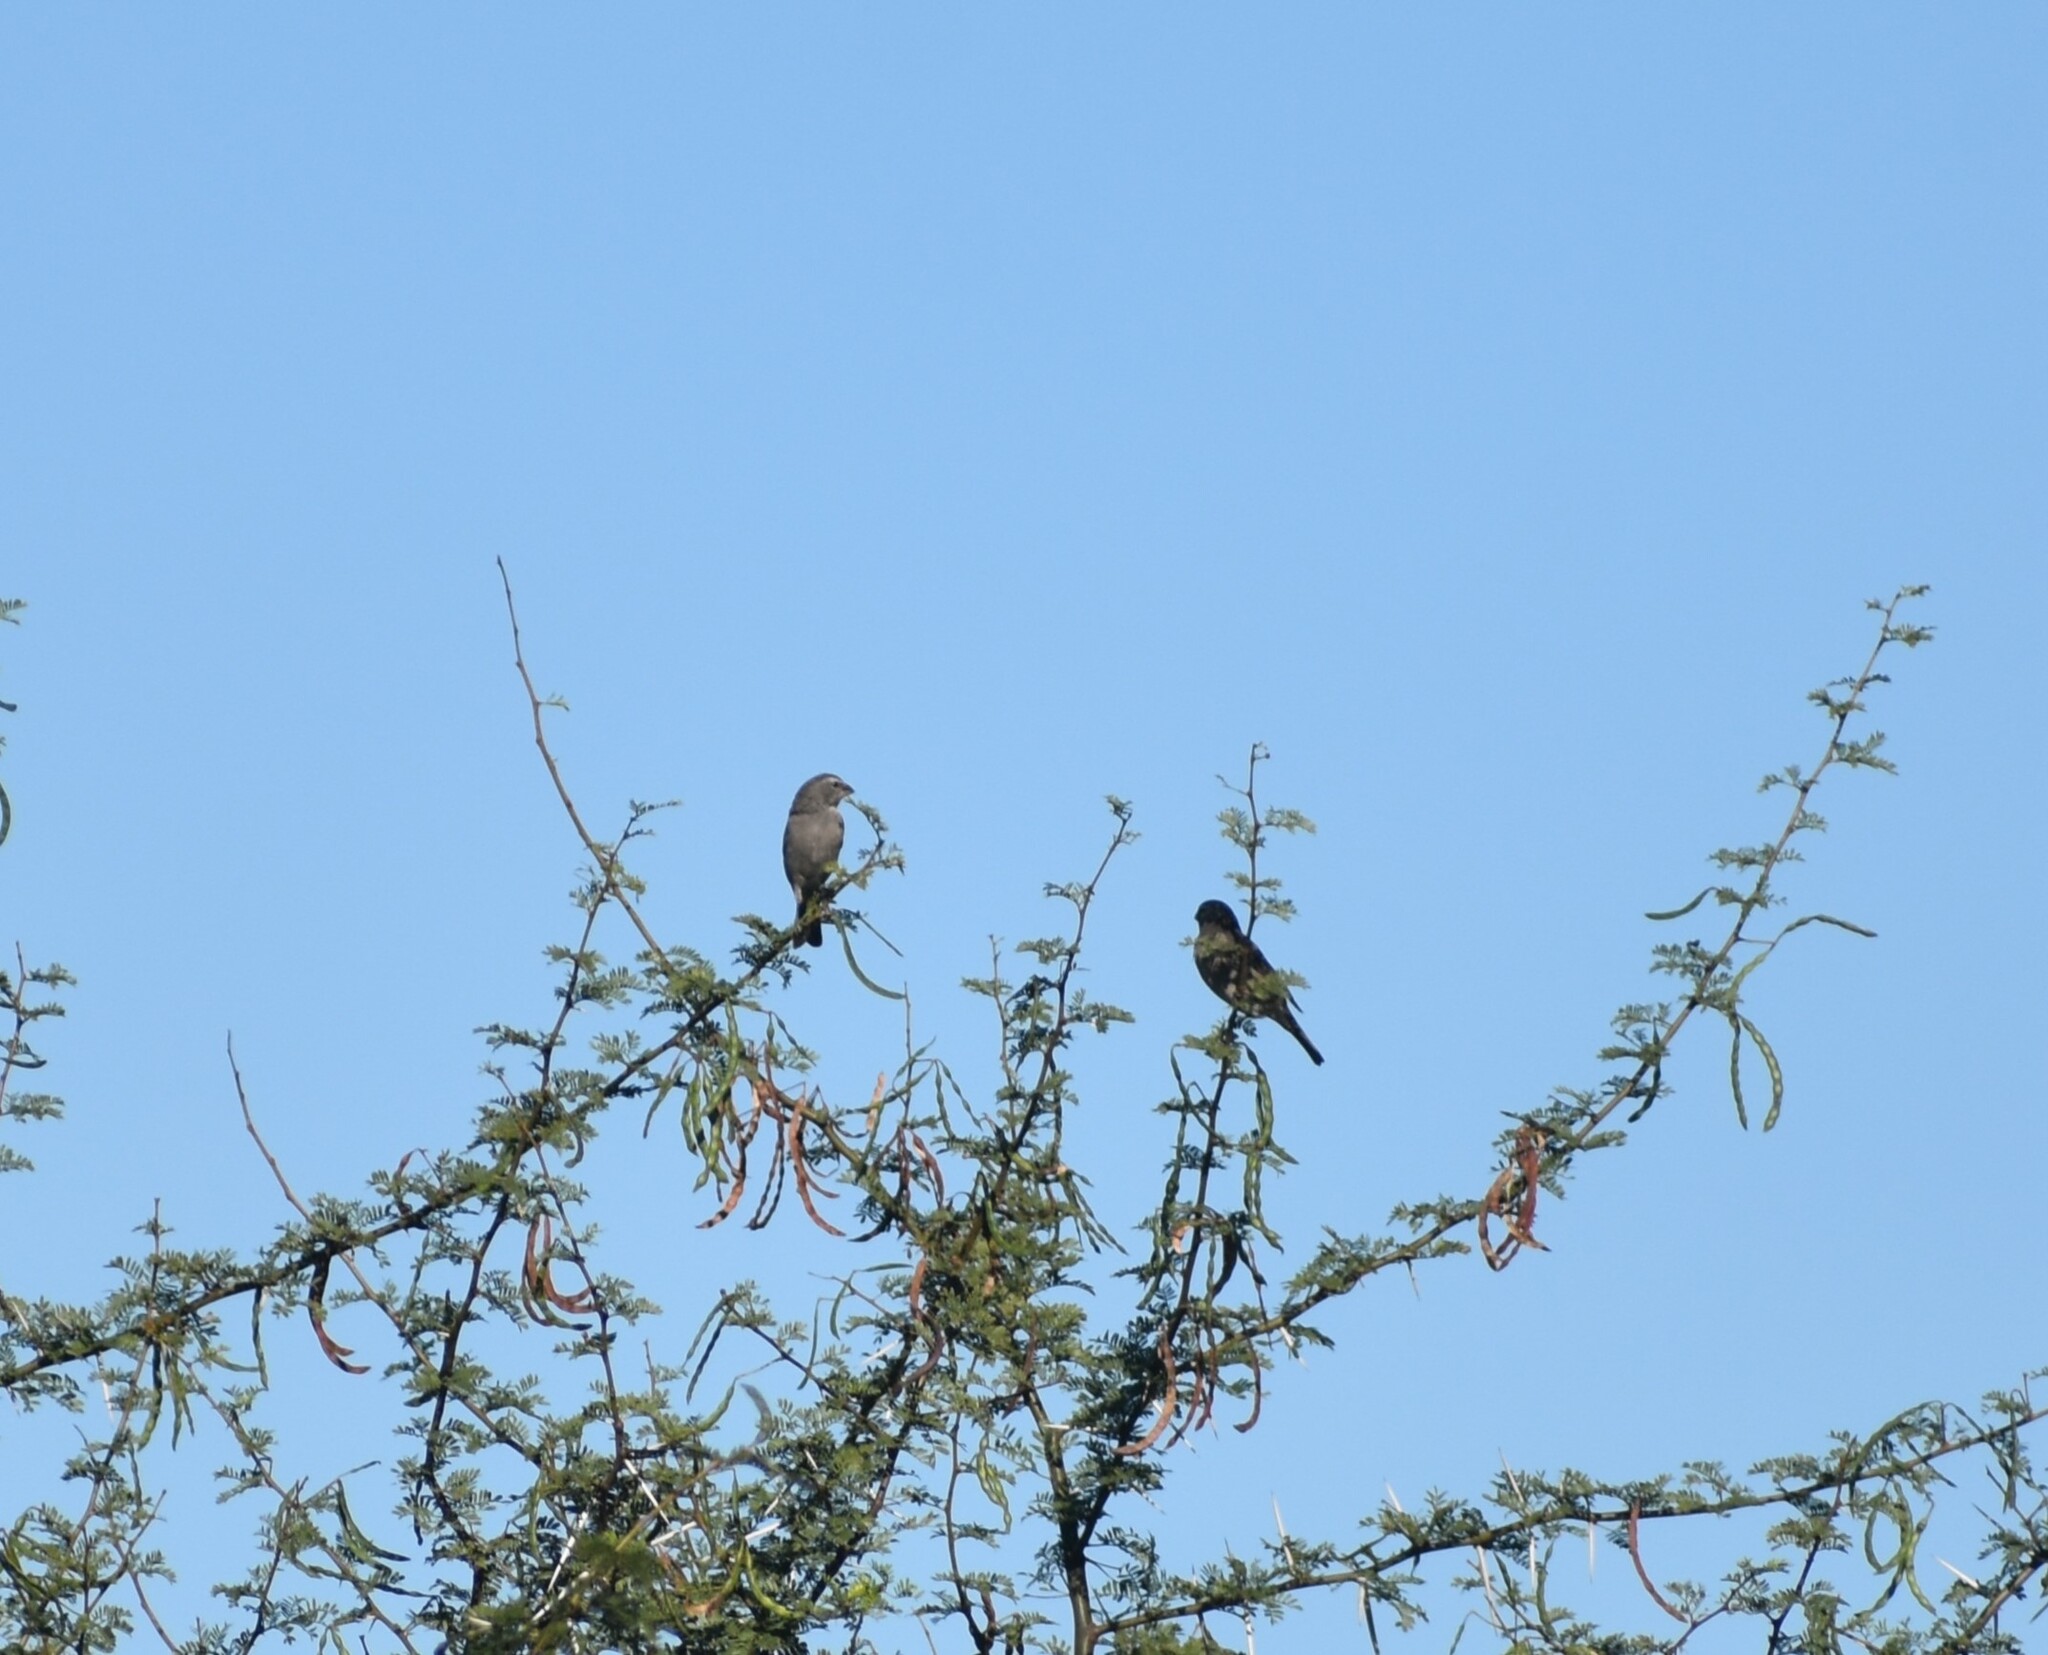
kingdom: Animalia
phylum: Chordata
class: Aves
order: Passeriformes
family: Fringillidae
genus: Crithagra
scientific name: Crithagra albogularis
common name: White-throated canary
